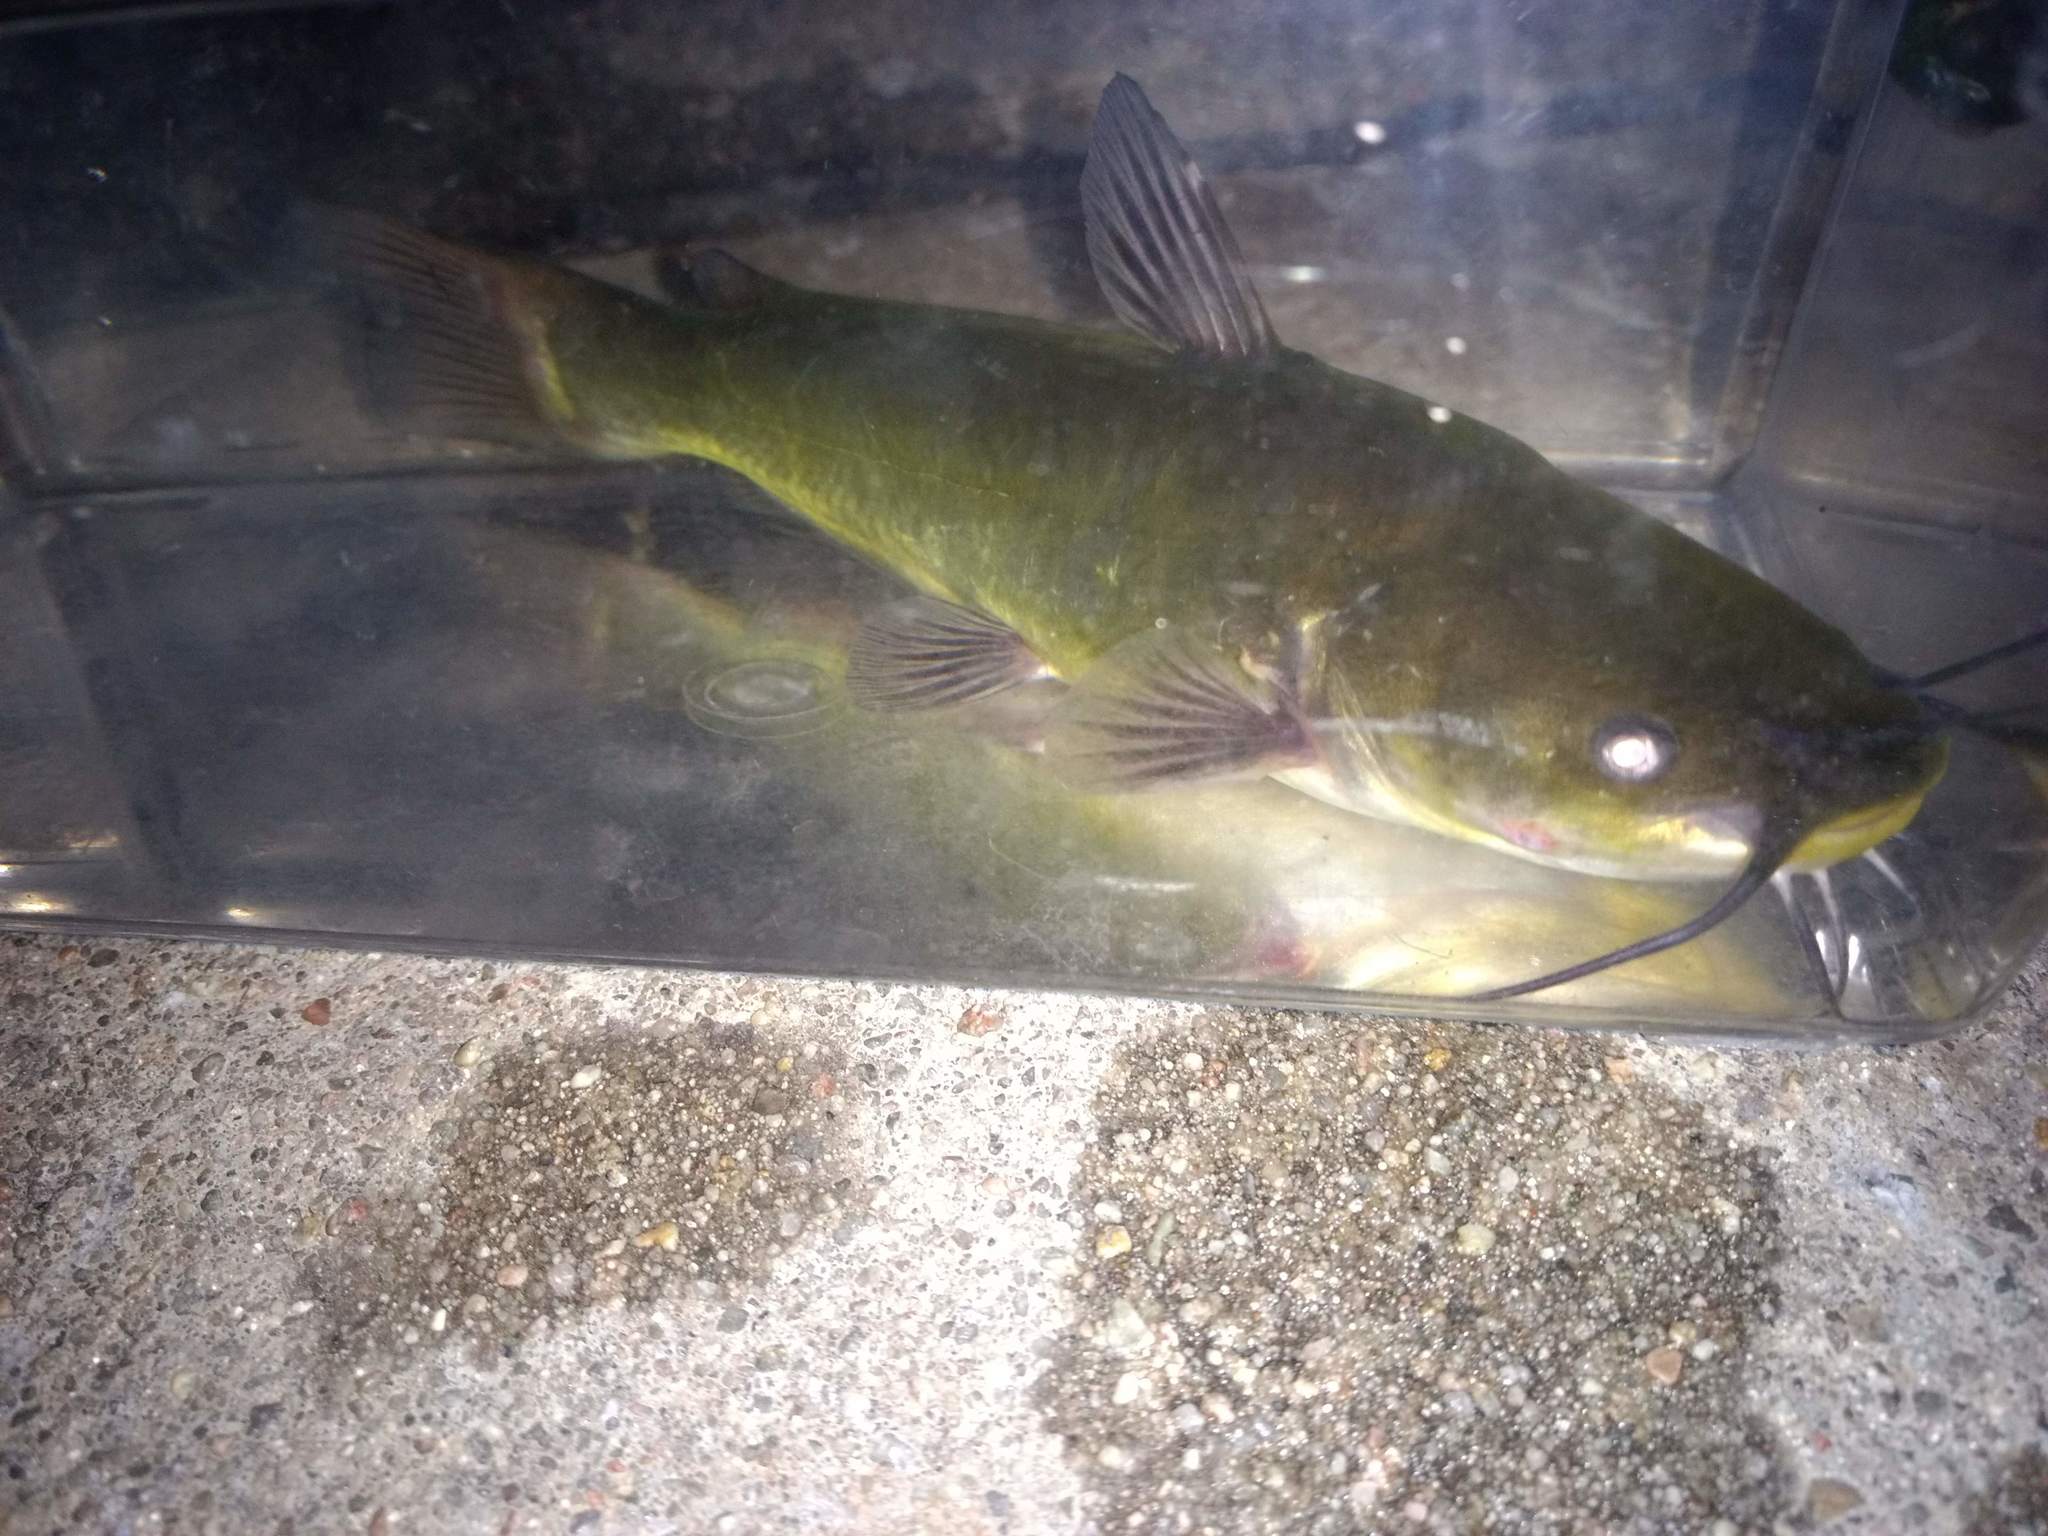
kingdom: Animalia
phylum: Chordata
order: Siluriformes
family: Ictaluridae
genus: Ameiurus
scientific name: Ameiurus melas
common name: Black bullhead
